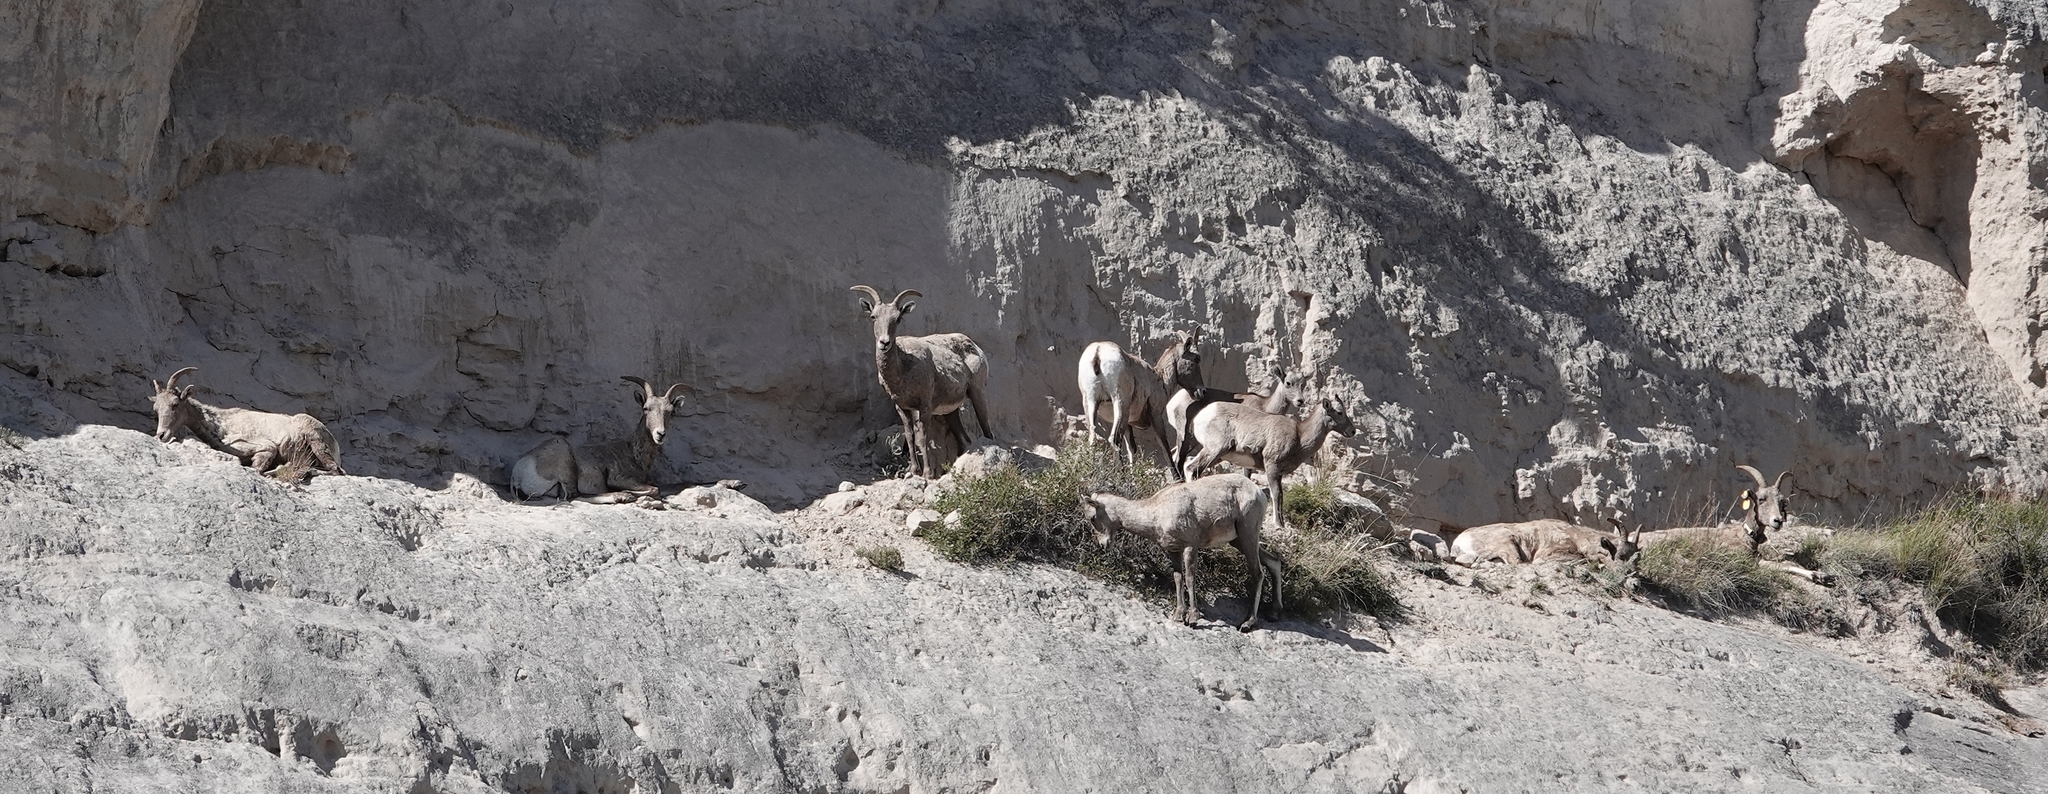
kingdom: Animalia
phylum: Chordata
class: Mammalia
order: Artiodactyla
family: Bovidae
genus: Ovis
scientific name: Ovis canadensis
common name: Bighorn sheep
